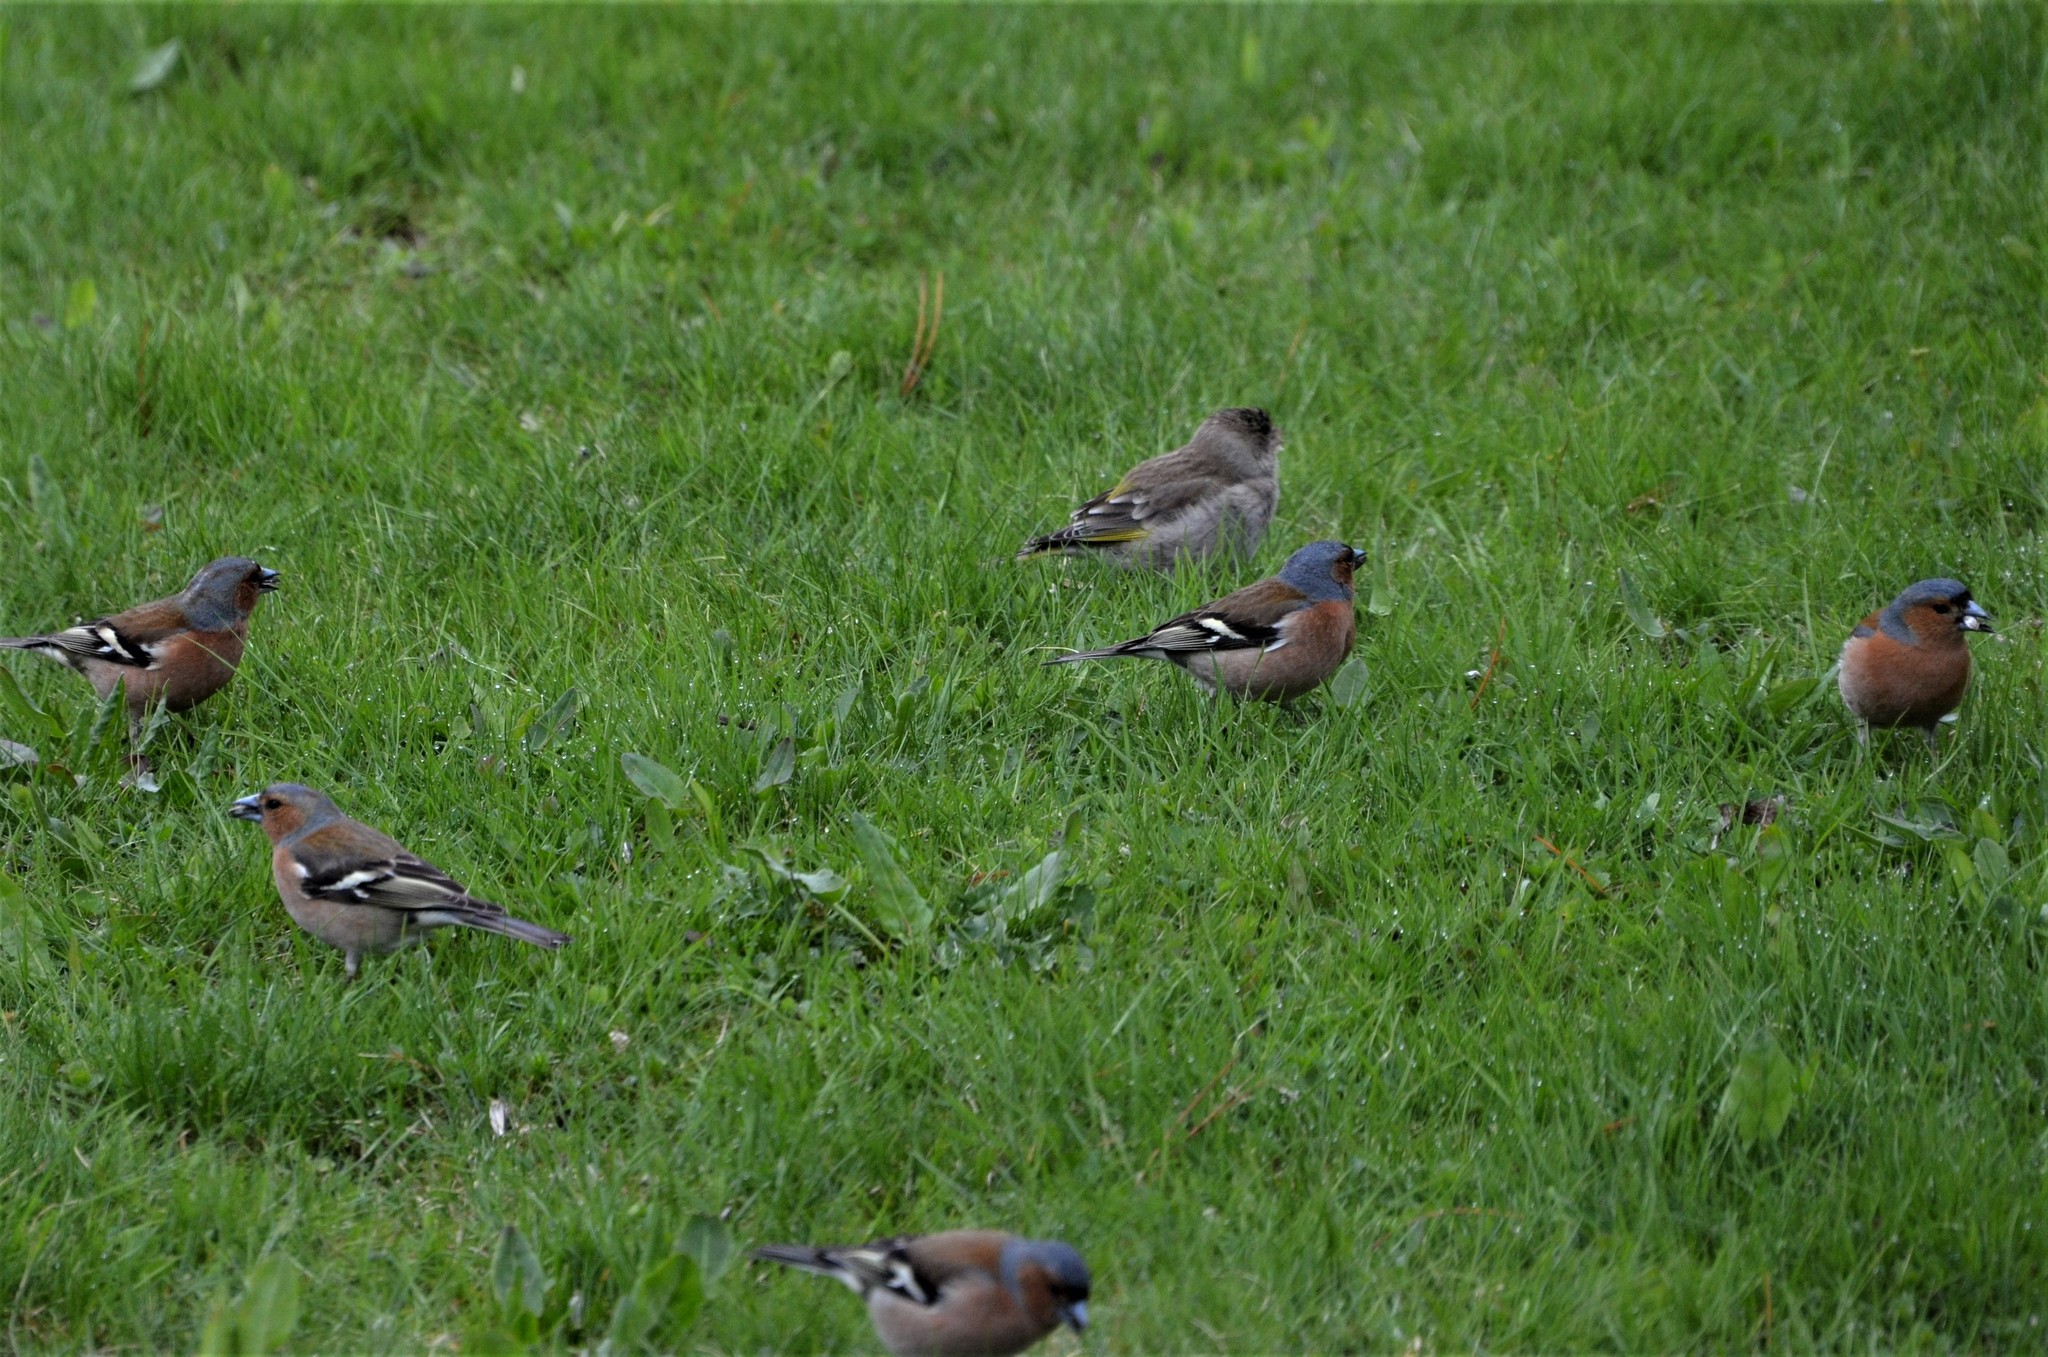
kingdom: Animalia
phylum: Chordata
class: Aves
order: Passeriformes
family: Fringillidae
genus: Fringilla
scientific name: Fringilla coelebs
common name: Common chaffinch
